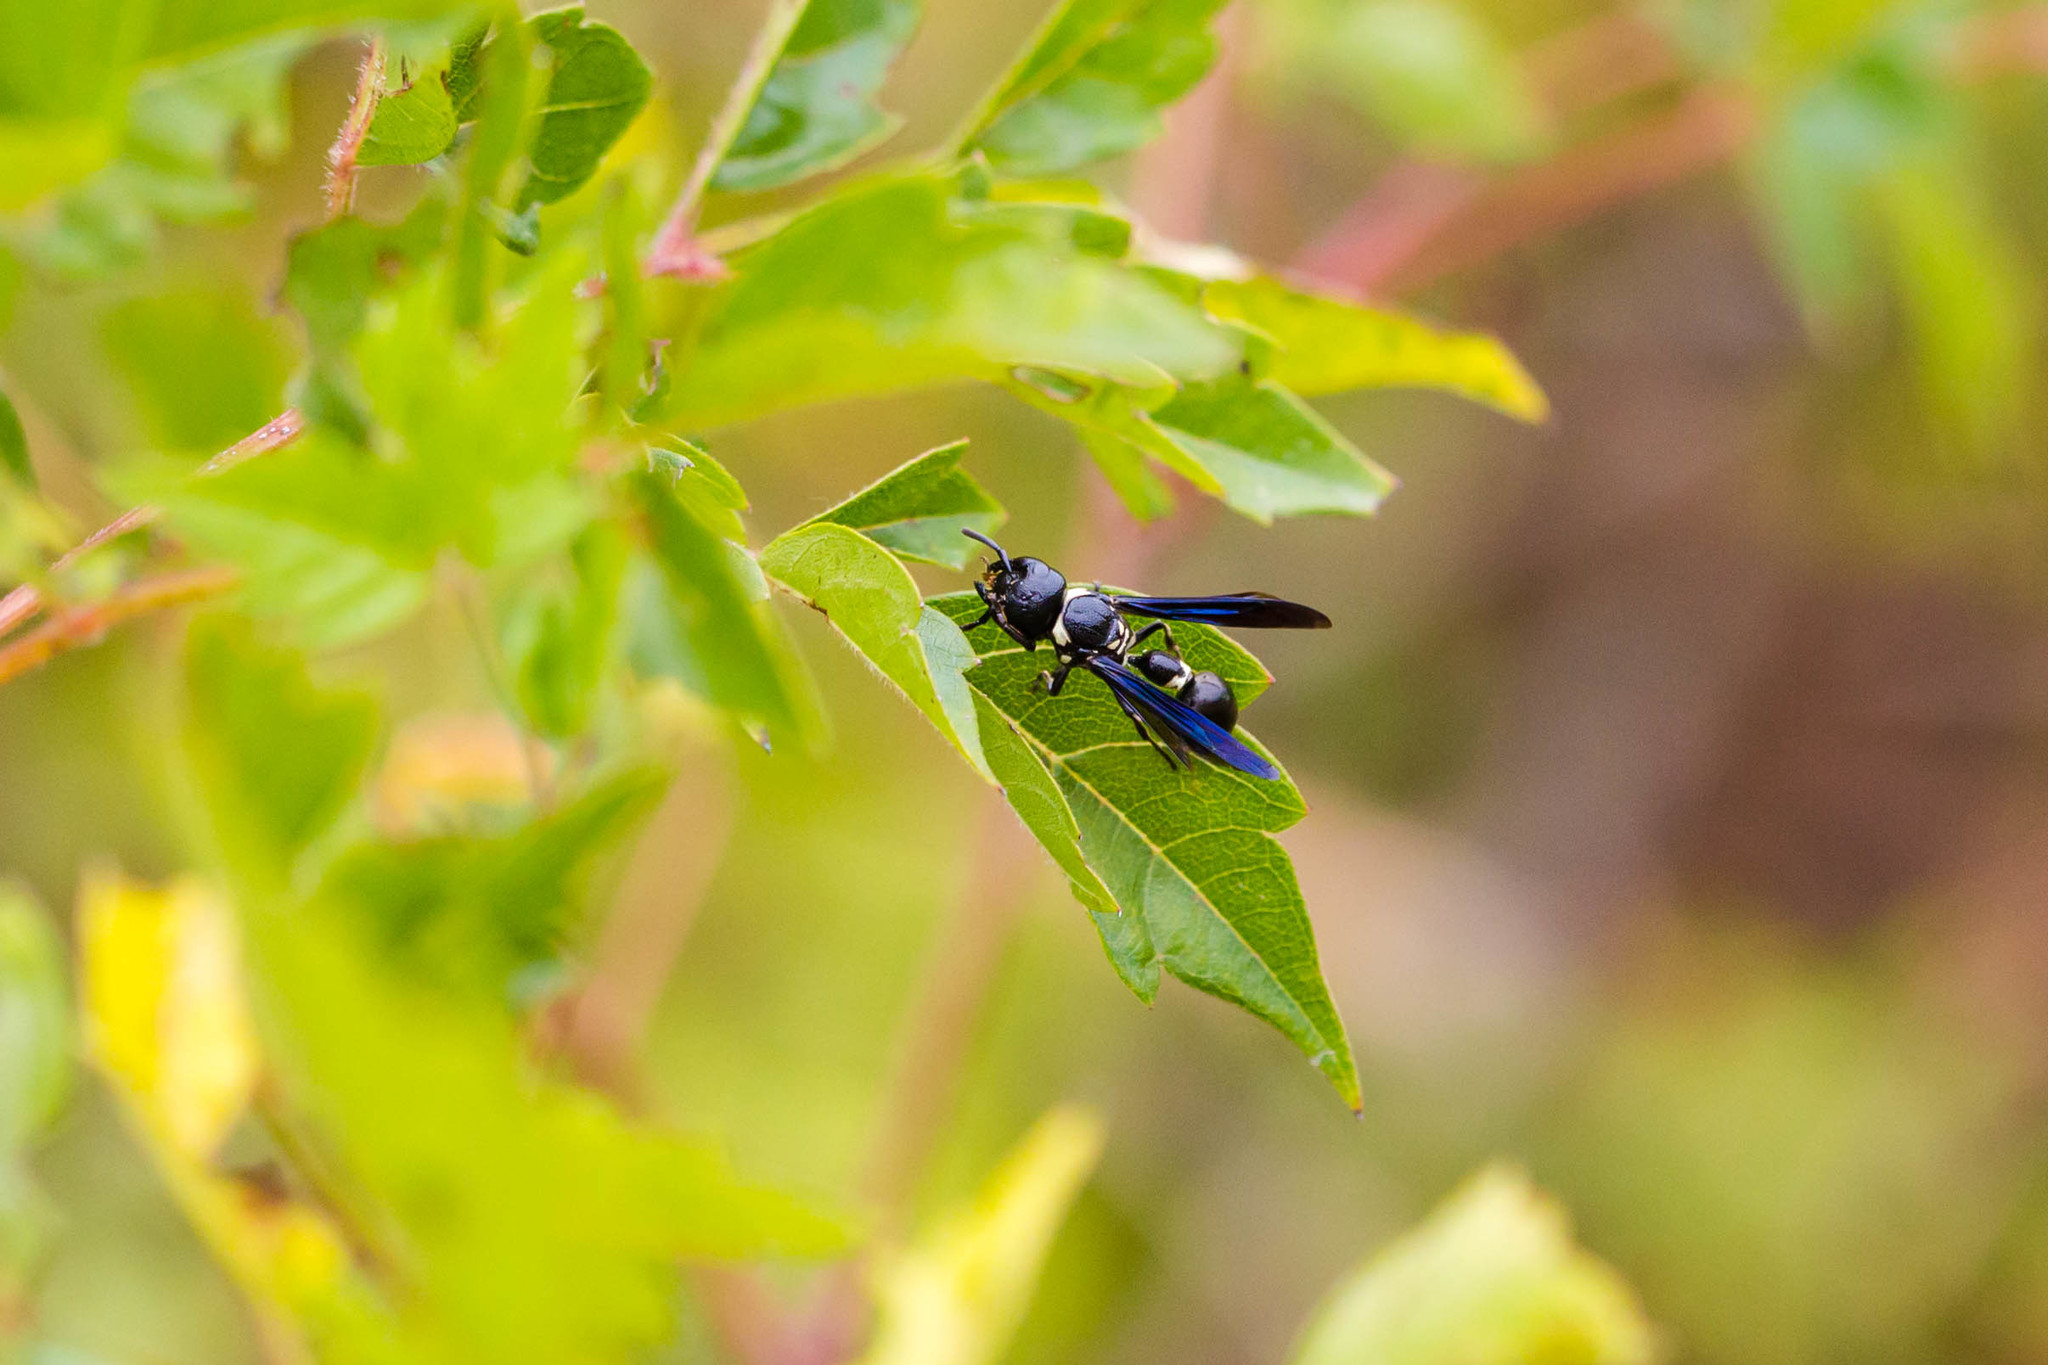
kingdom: Animalia
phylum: Arthropoda
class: Insecta
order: Hymenoptera
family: Eumenidae
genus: Zethus
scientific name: Zethus spinipes
